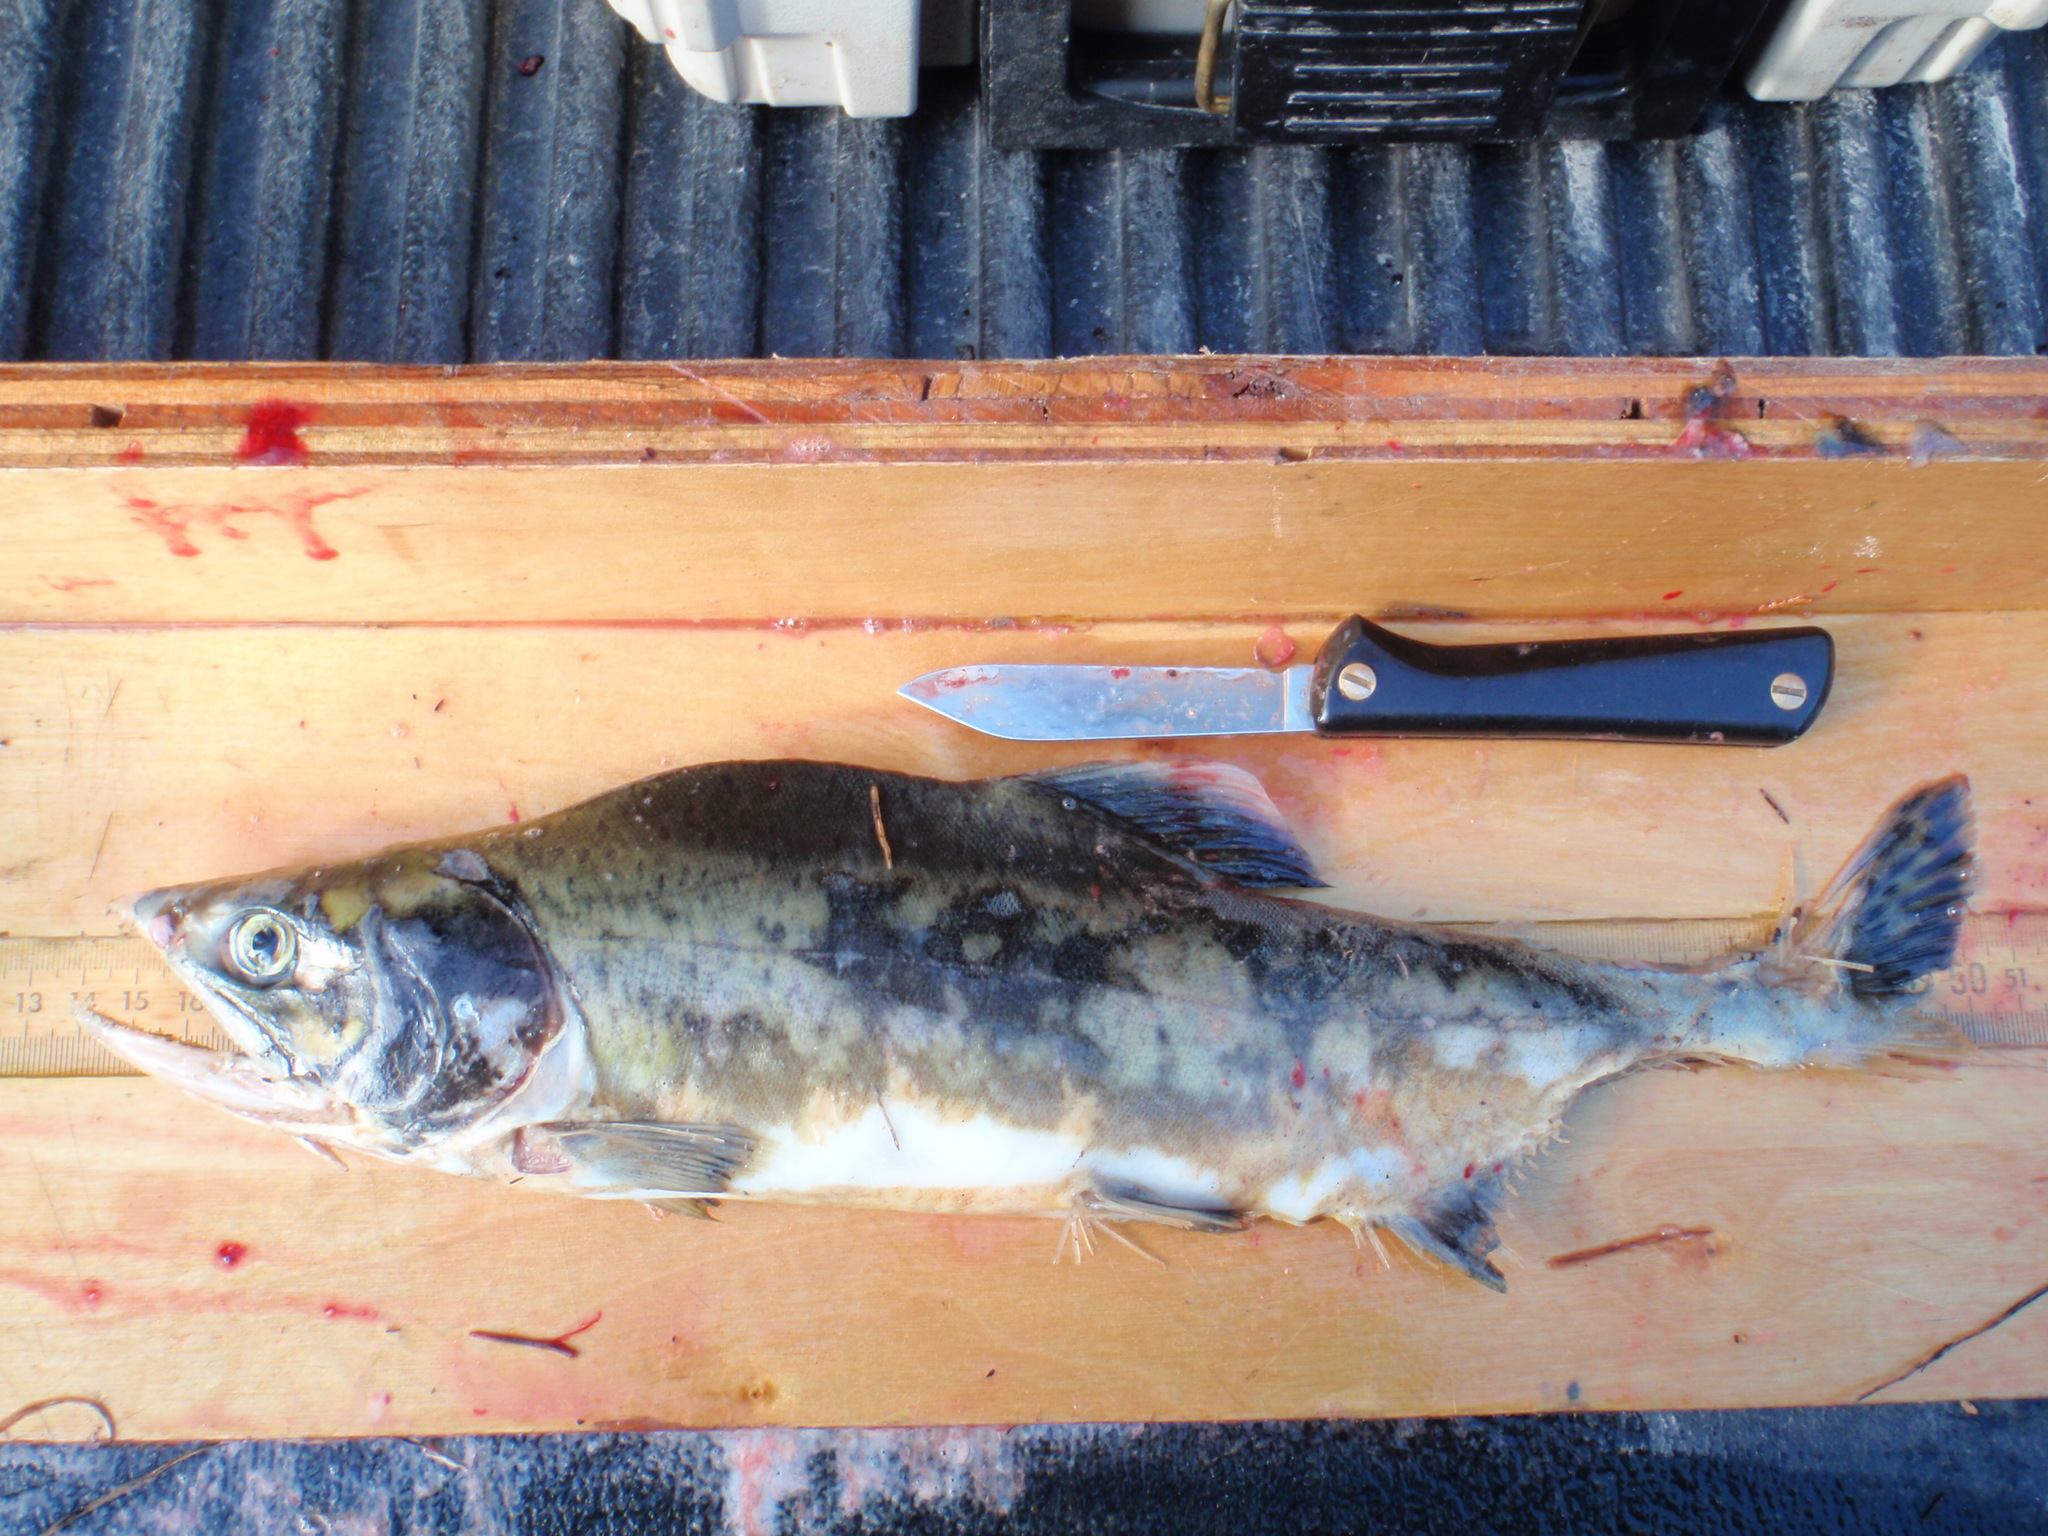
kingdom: Animalia
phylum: Chordata
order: Salmoniformes
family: Salmonidae
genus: Oncorhynchus
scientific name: Oncorhynchus gorbuscha
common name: Humpback salmon
